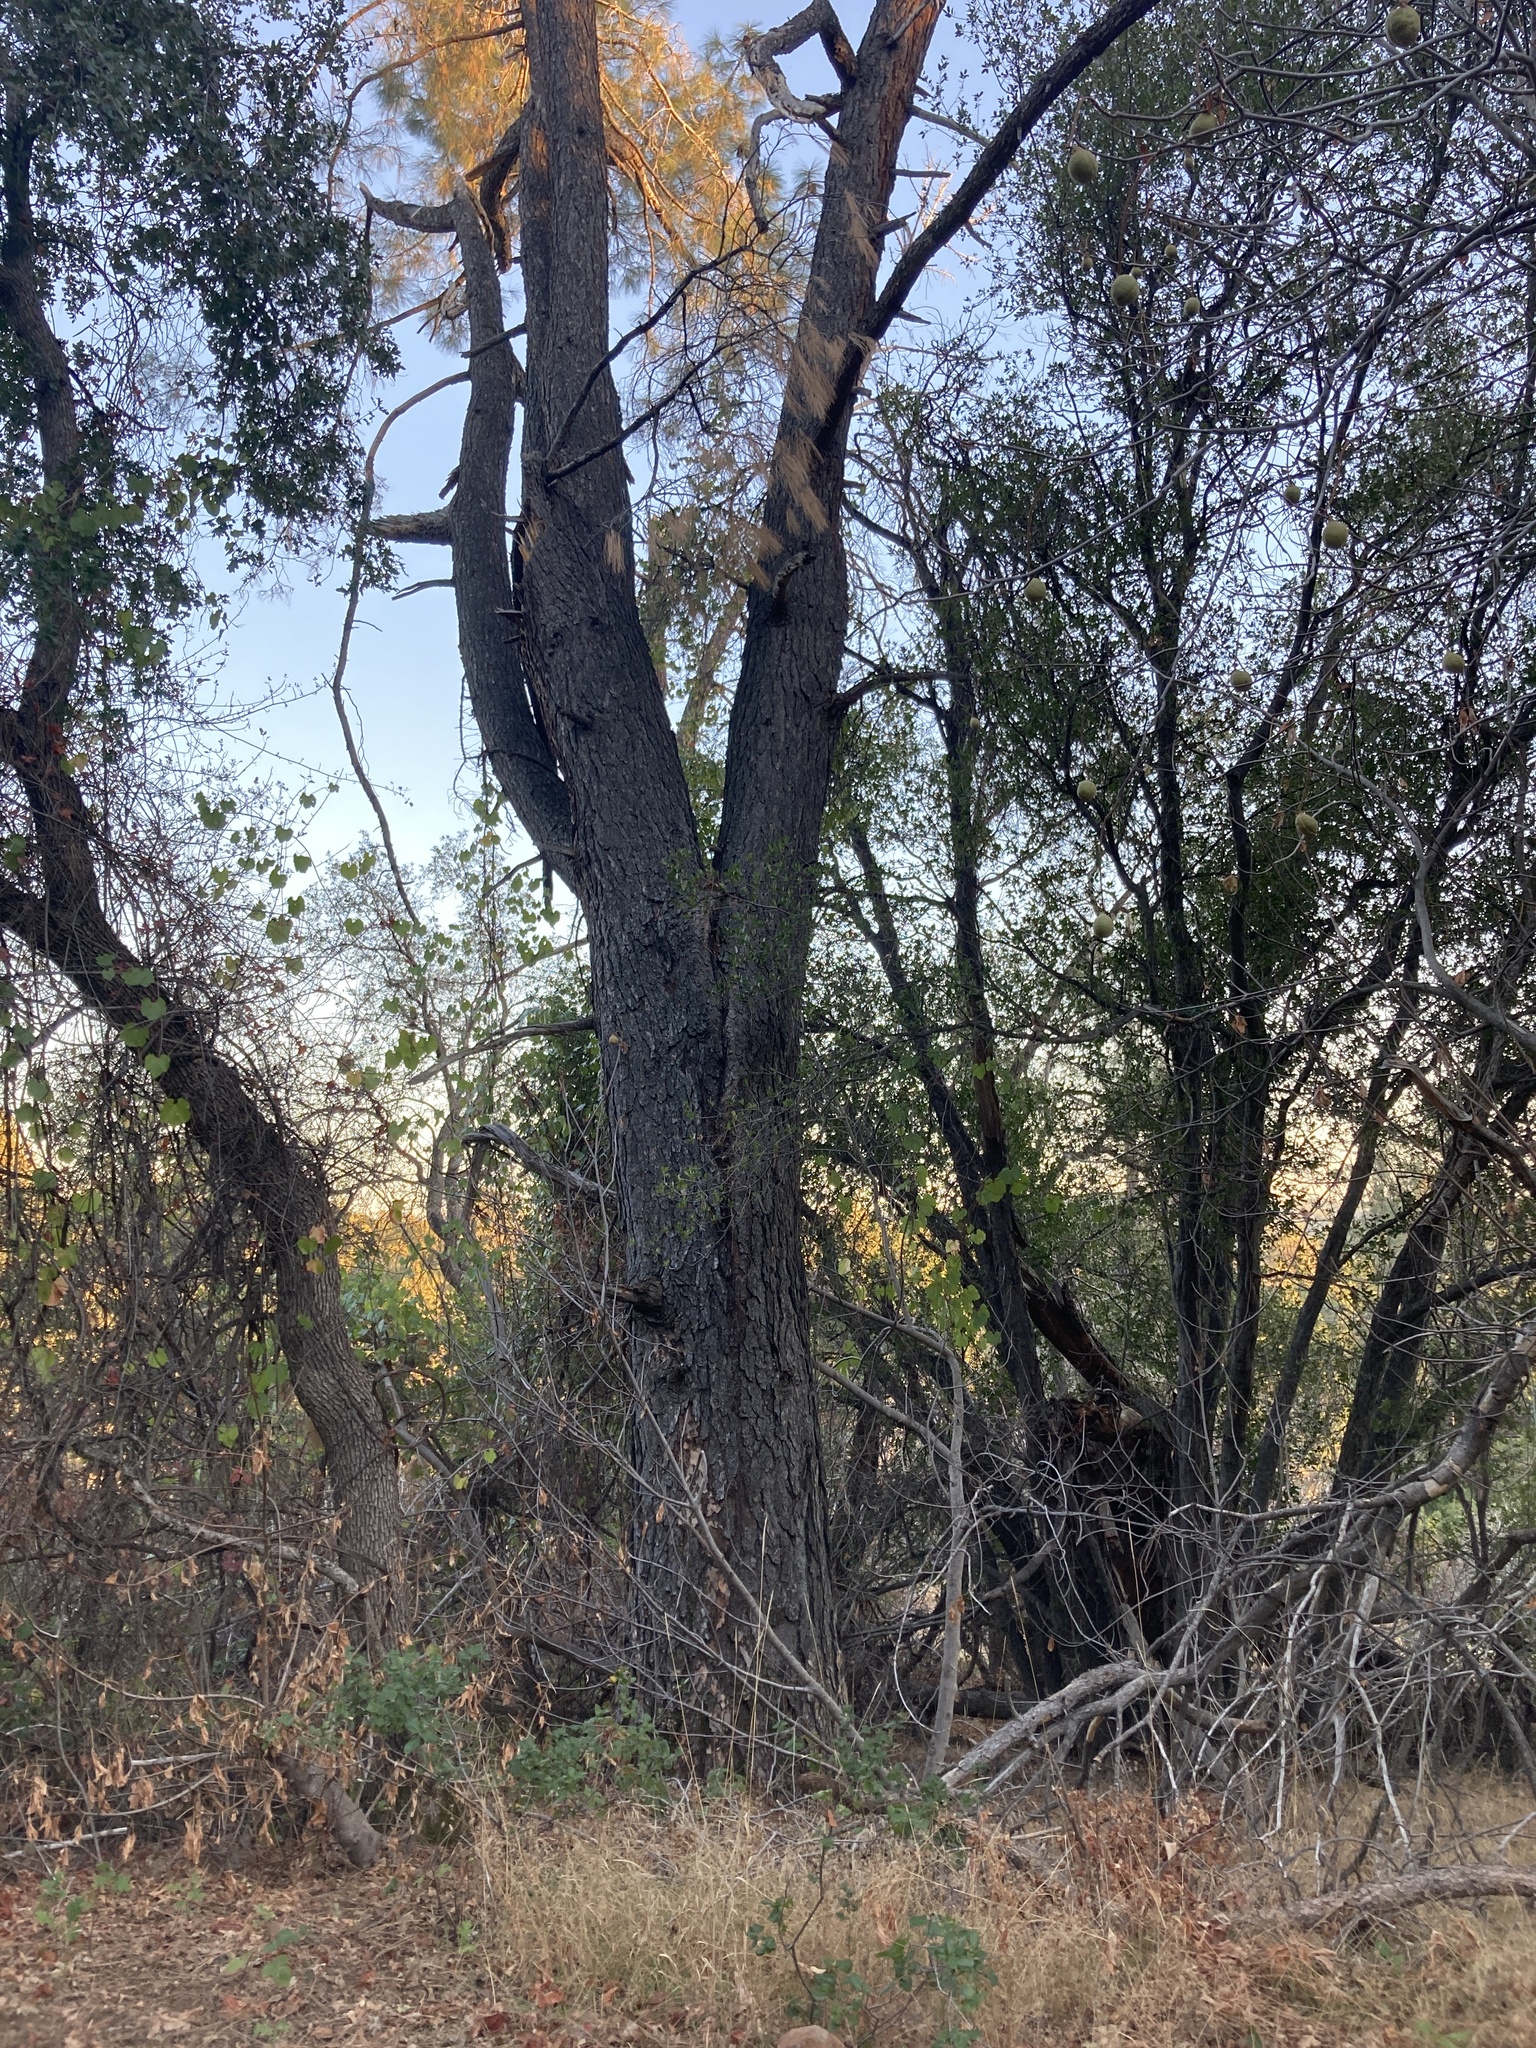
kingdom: Plantae
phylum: Tracheophyta
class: Pinopsida
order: Pinales
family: Pinaceae
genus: Pinus
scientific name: Pinus sabiniana
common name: Bull pine
